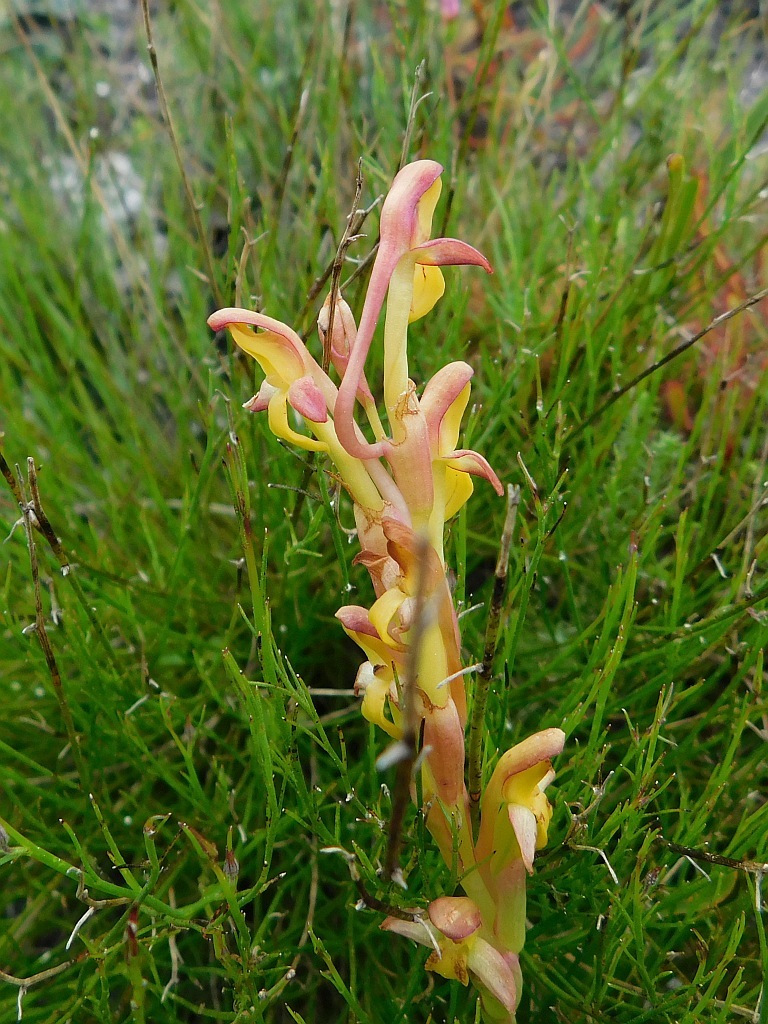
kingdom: Plantae
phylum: Tracheophyta
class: Liliopsida
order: Asparagales
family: Orchidaceae
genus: Disa
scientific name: Disa comosa
